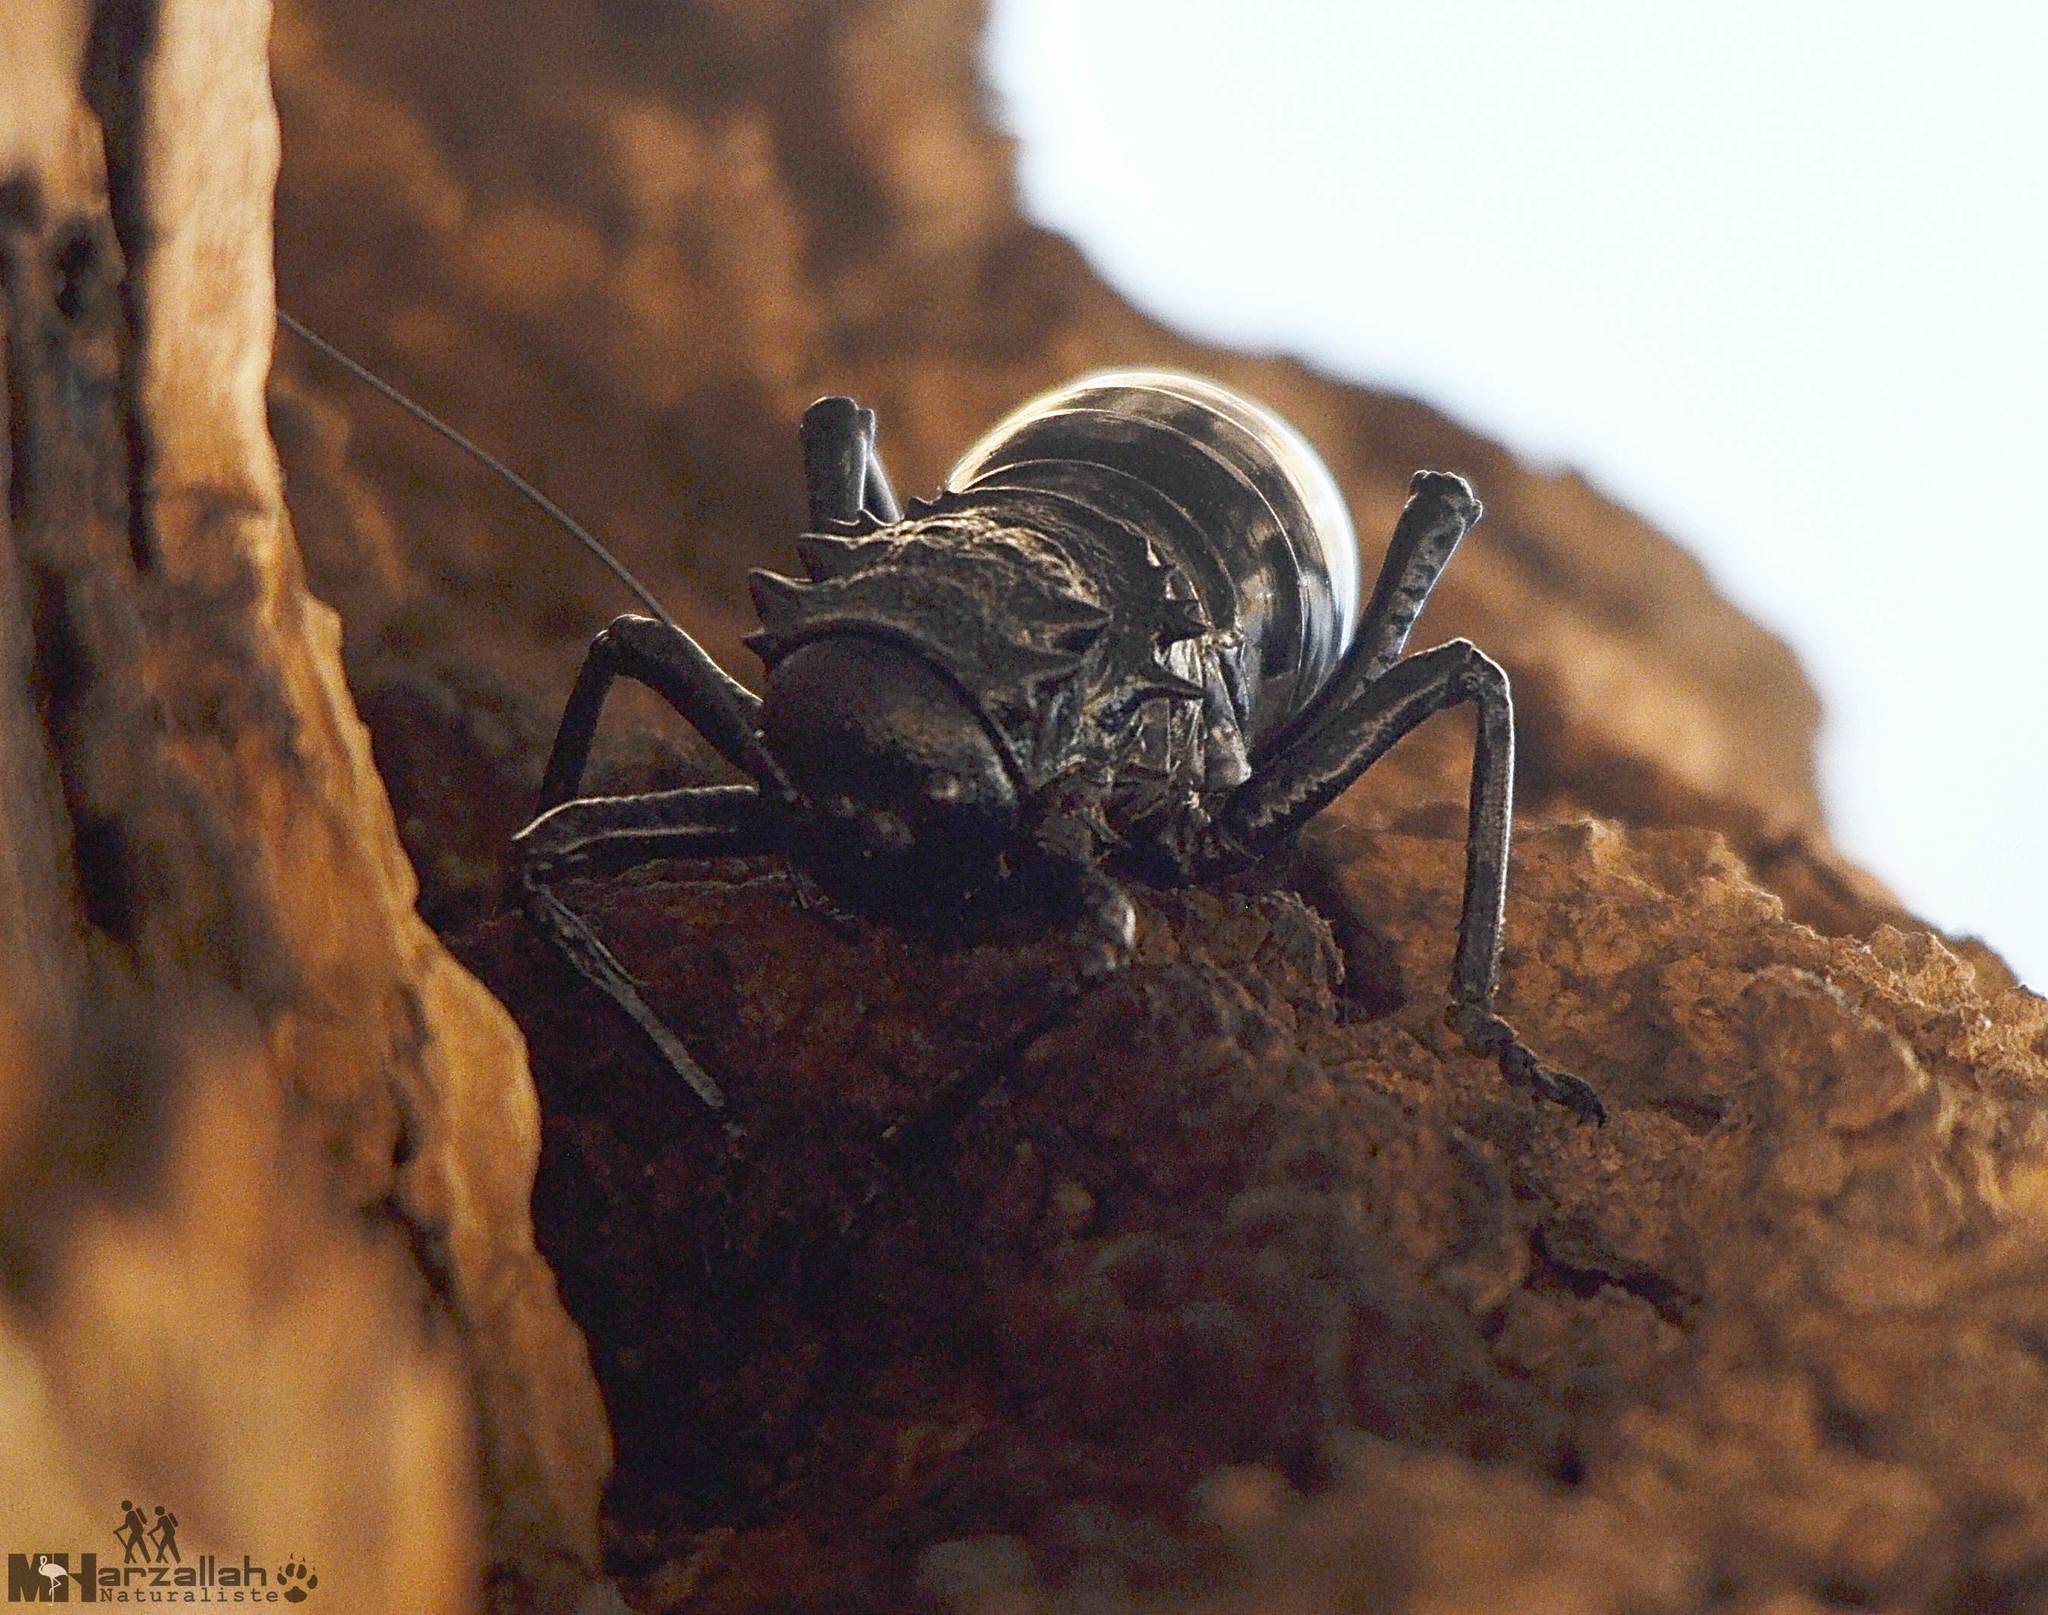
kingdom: Animalia
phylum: Arthropoda
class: Insecta
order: Orthoptera
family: Tettigoniidae
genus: Eugaster
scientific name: Eugaster guyoni
